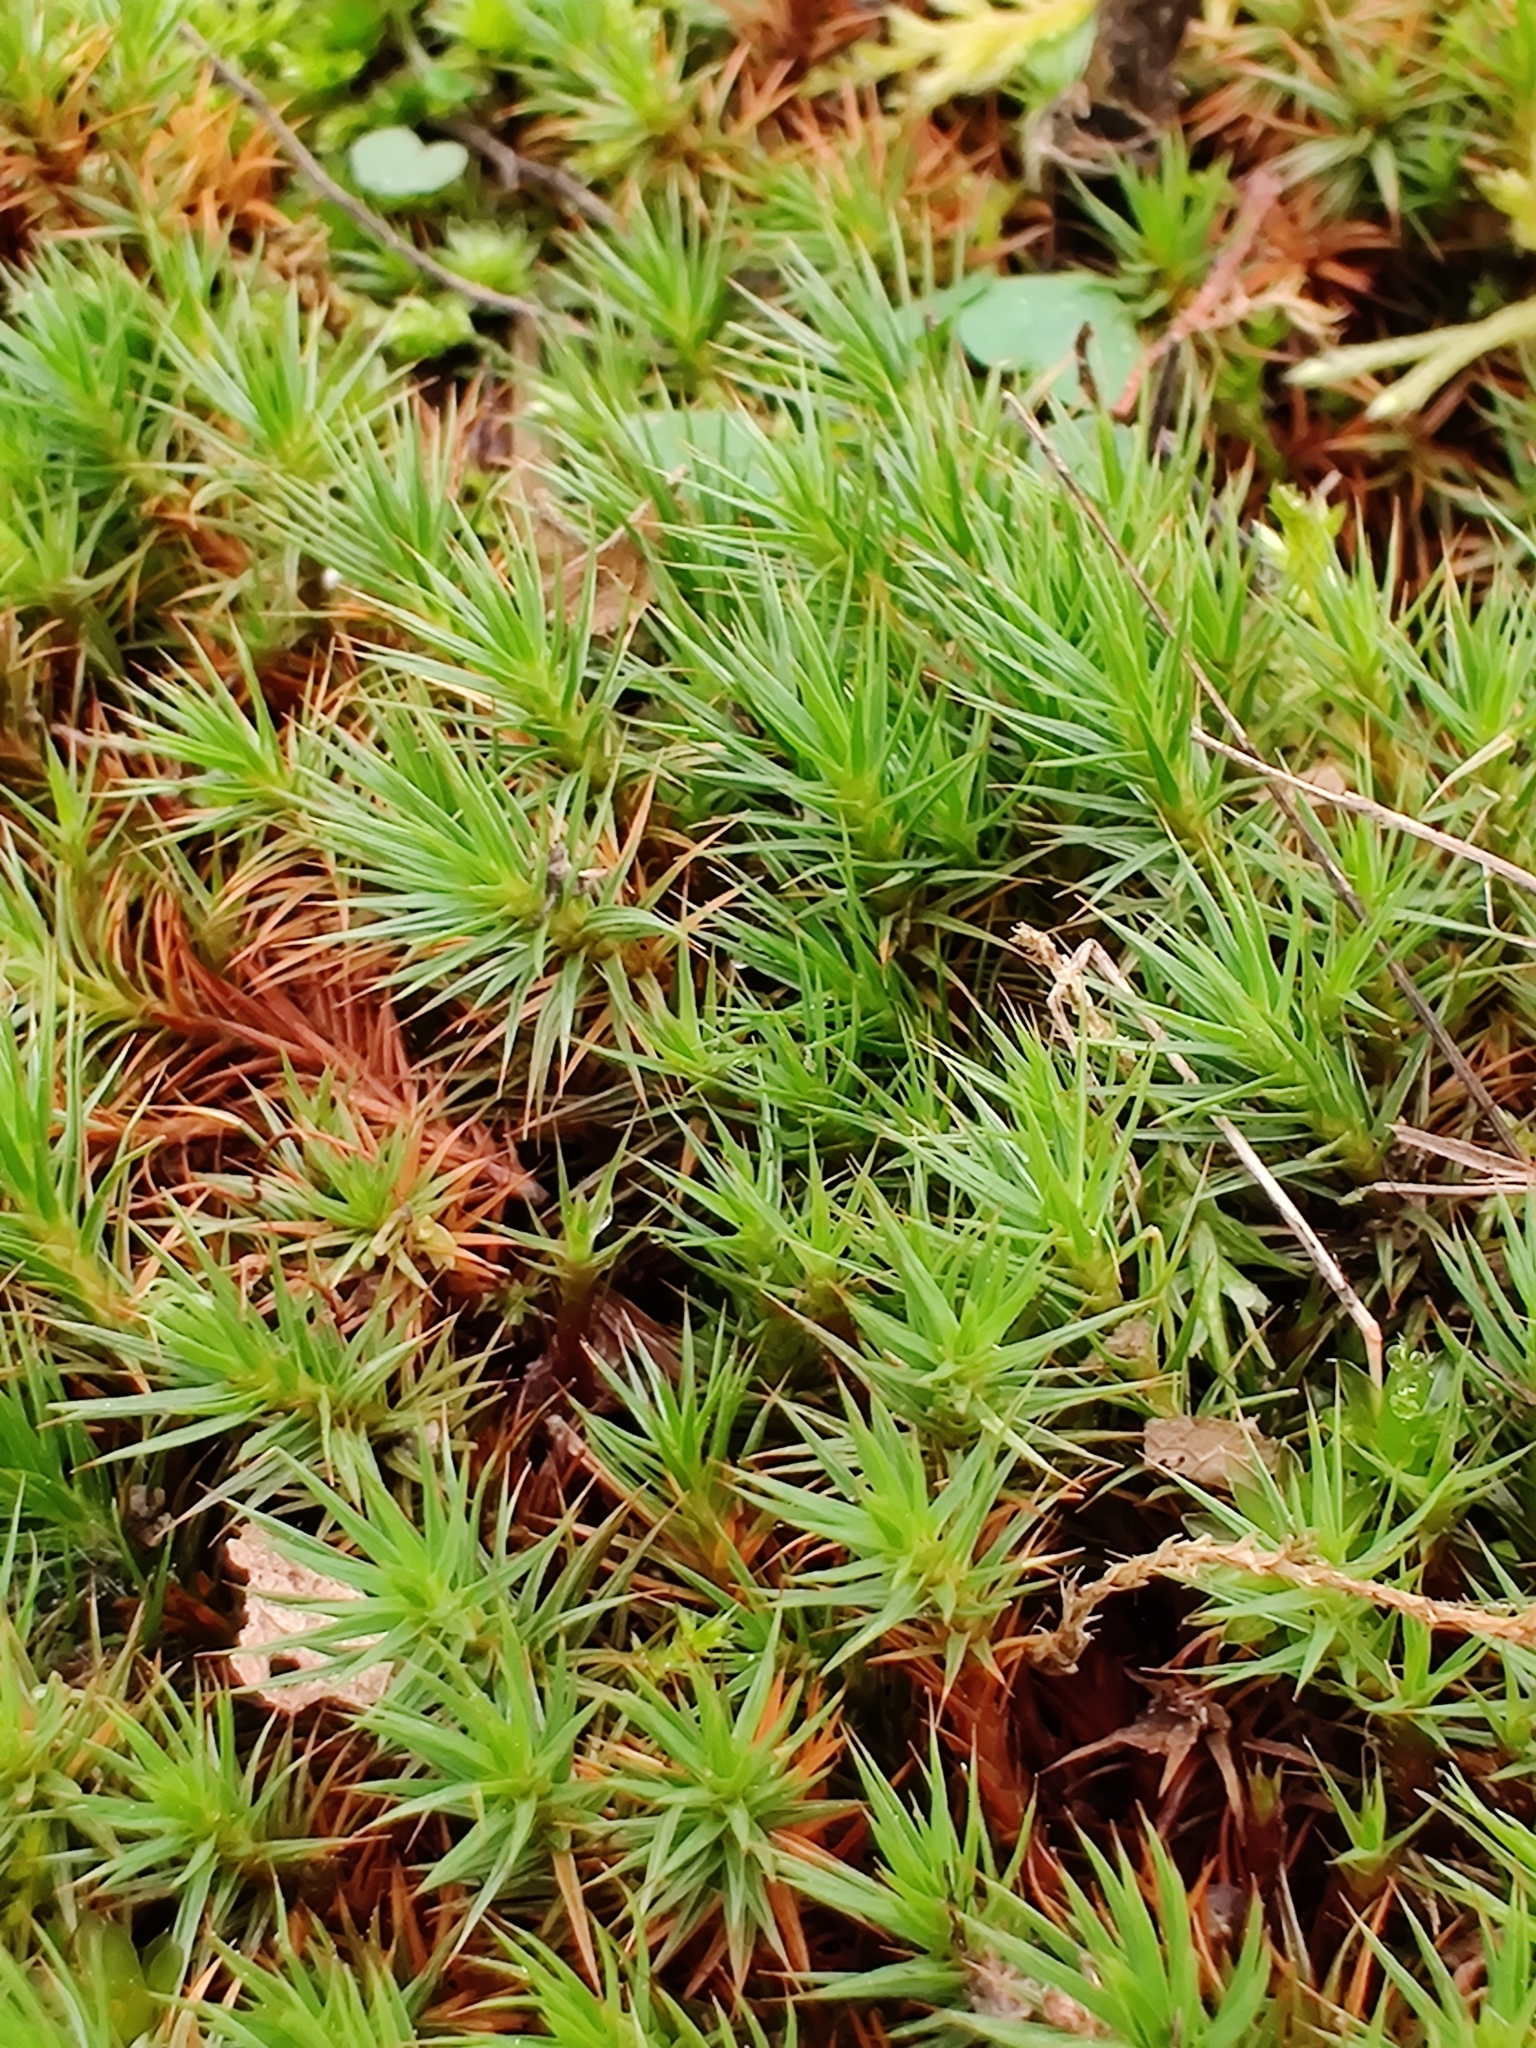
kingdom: Plantae
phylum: Bryophyta
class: Polytrichopsida
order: Polytrichales
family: Polytrichaceae
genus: Polytrichum
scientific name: Polytrichum juniperinum
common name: Juniper haircap moss
